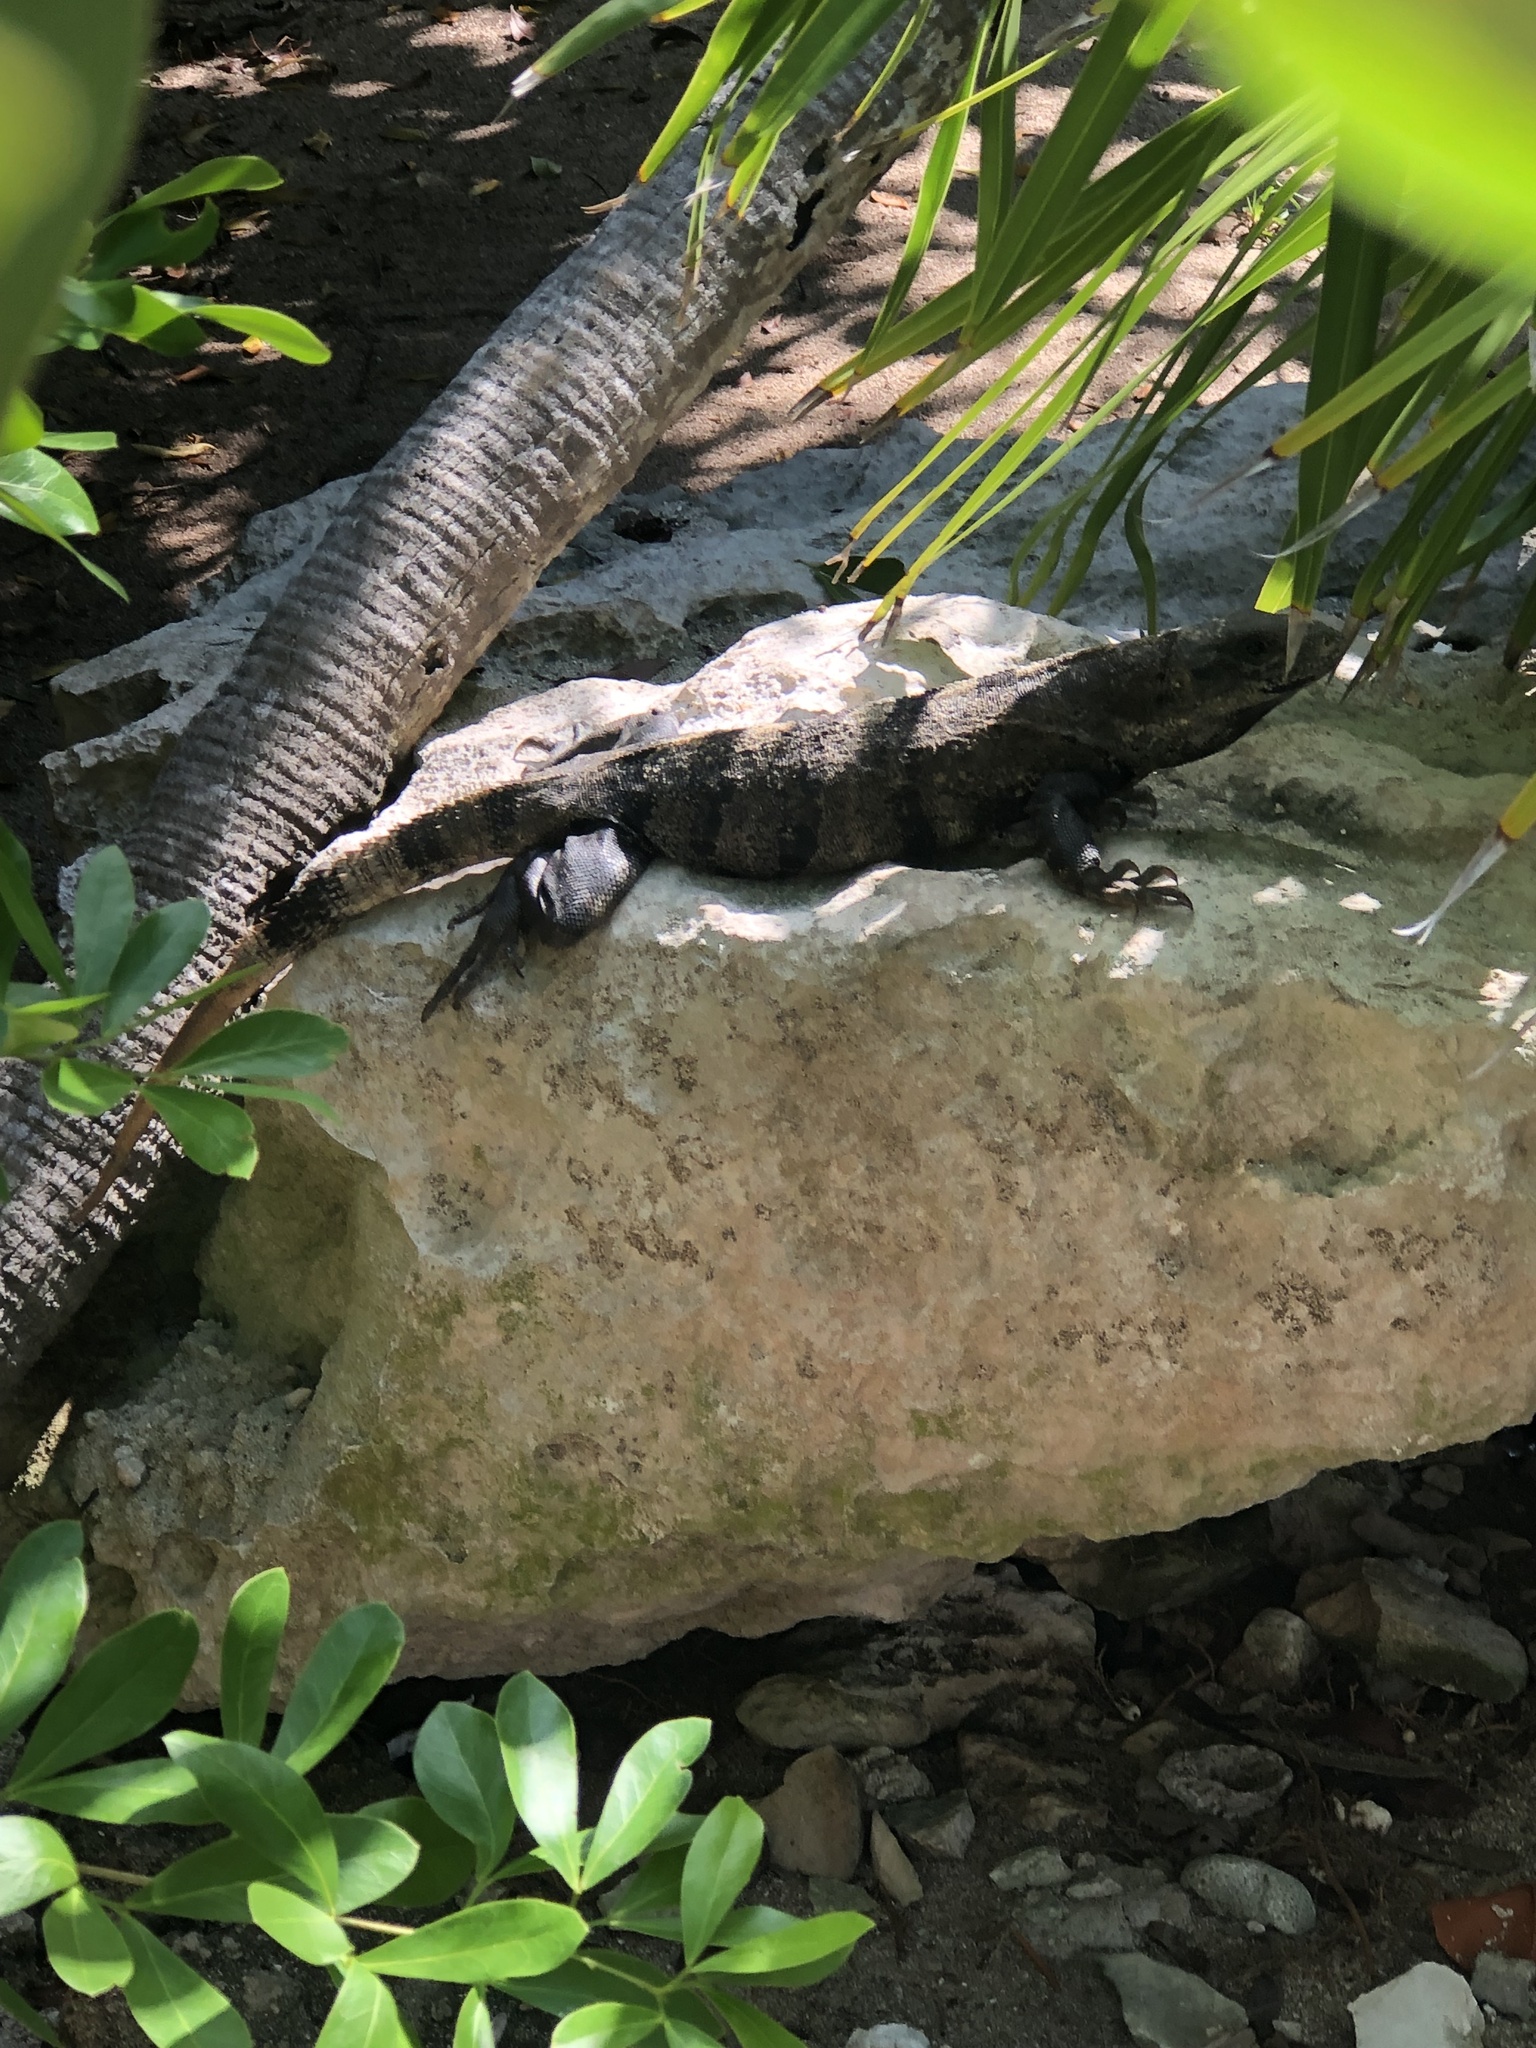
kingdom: Animalia
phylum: Chordata
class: Squamata
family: Iguanidae
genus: Ctenosaura
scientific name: Ctenosaura similis
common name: Black spiny-tailed iguana
